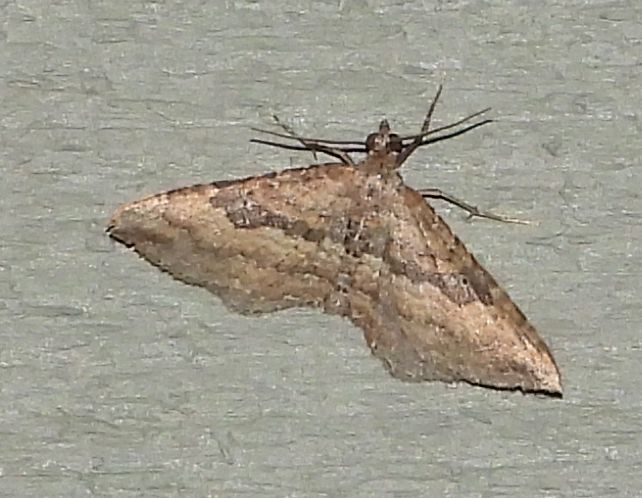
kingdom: Animalia
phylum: Arthropoda
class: Insecta
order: Lepidoptera
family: Geometridae
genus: Orthonama
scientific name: Orthonama obstipata
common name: The gem
